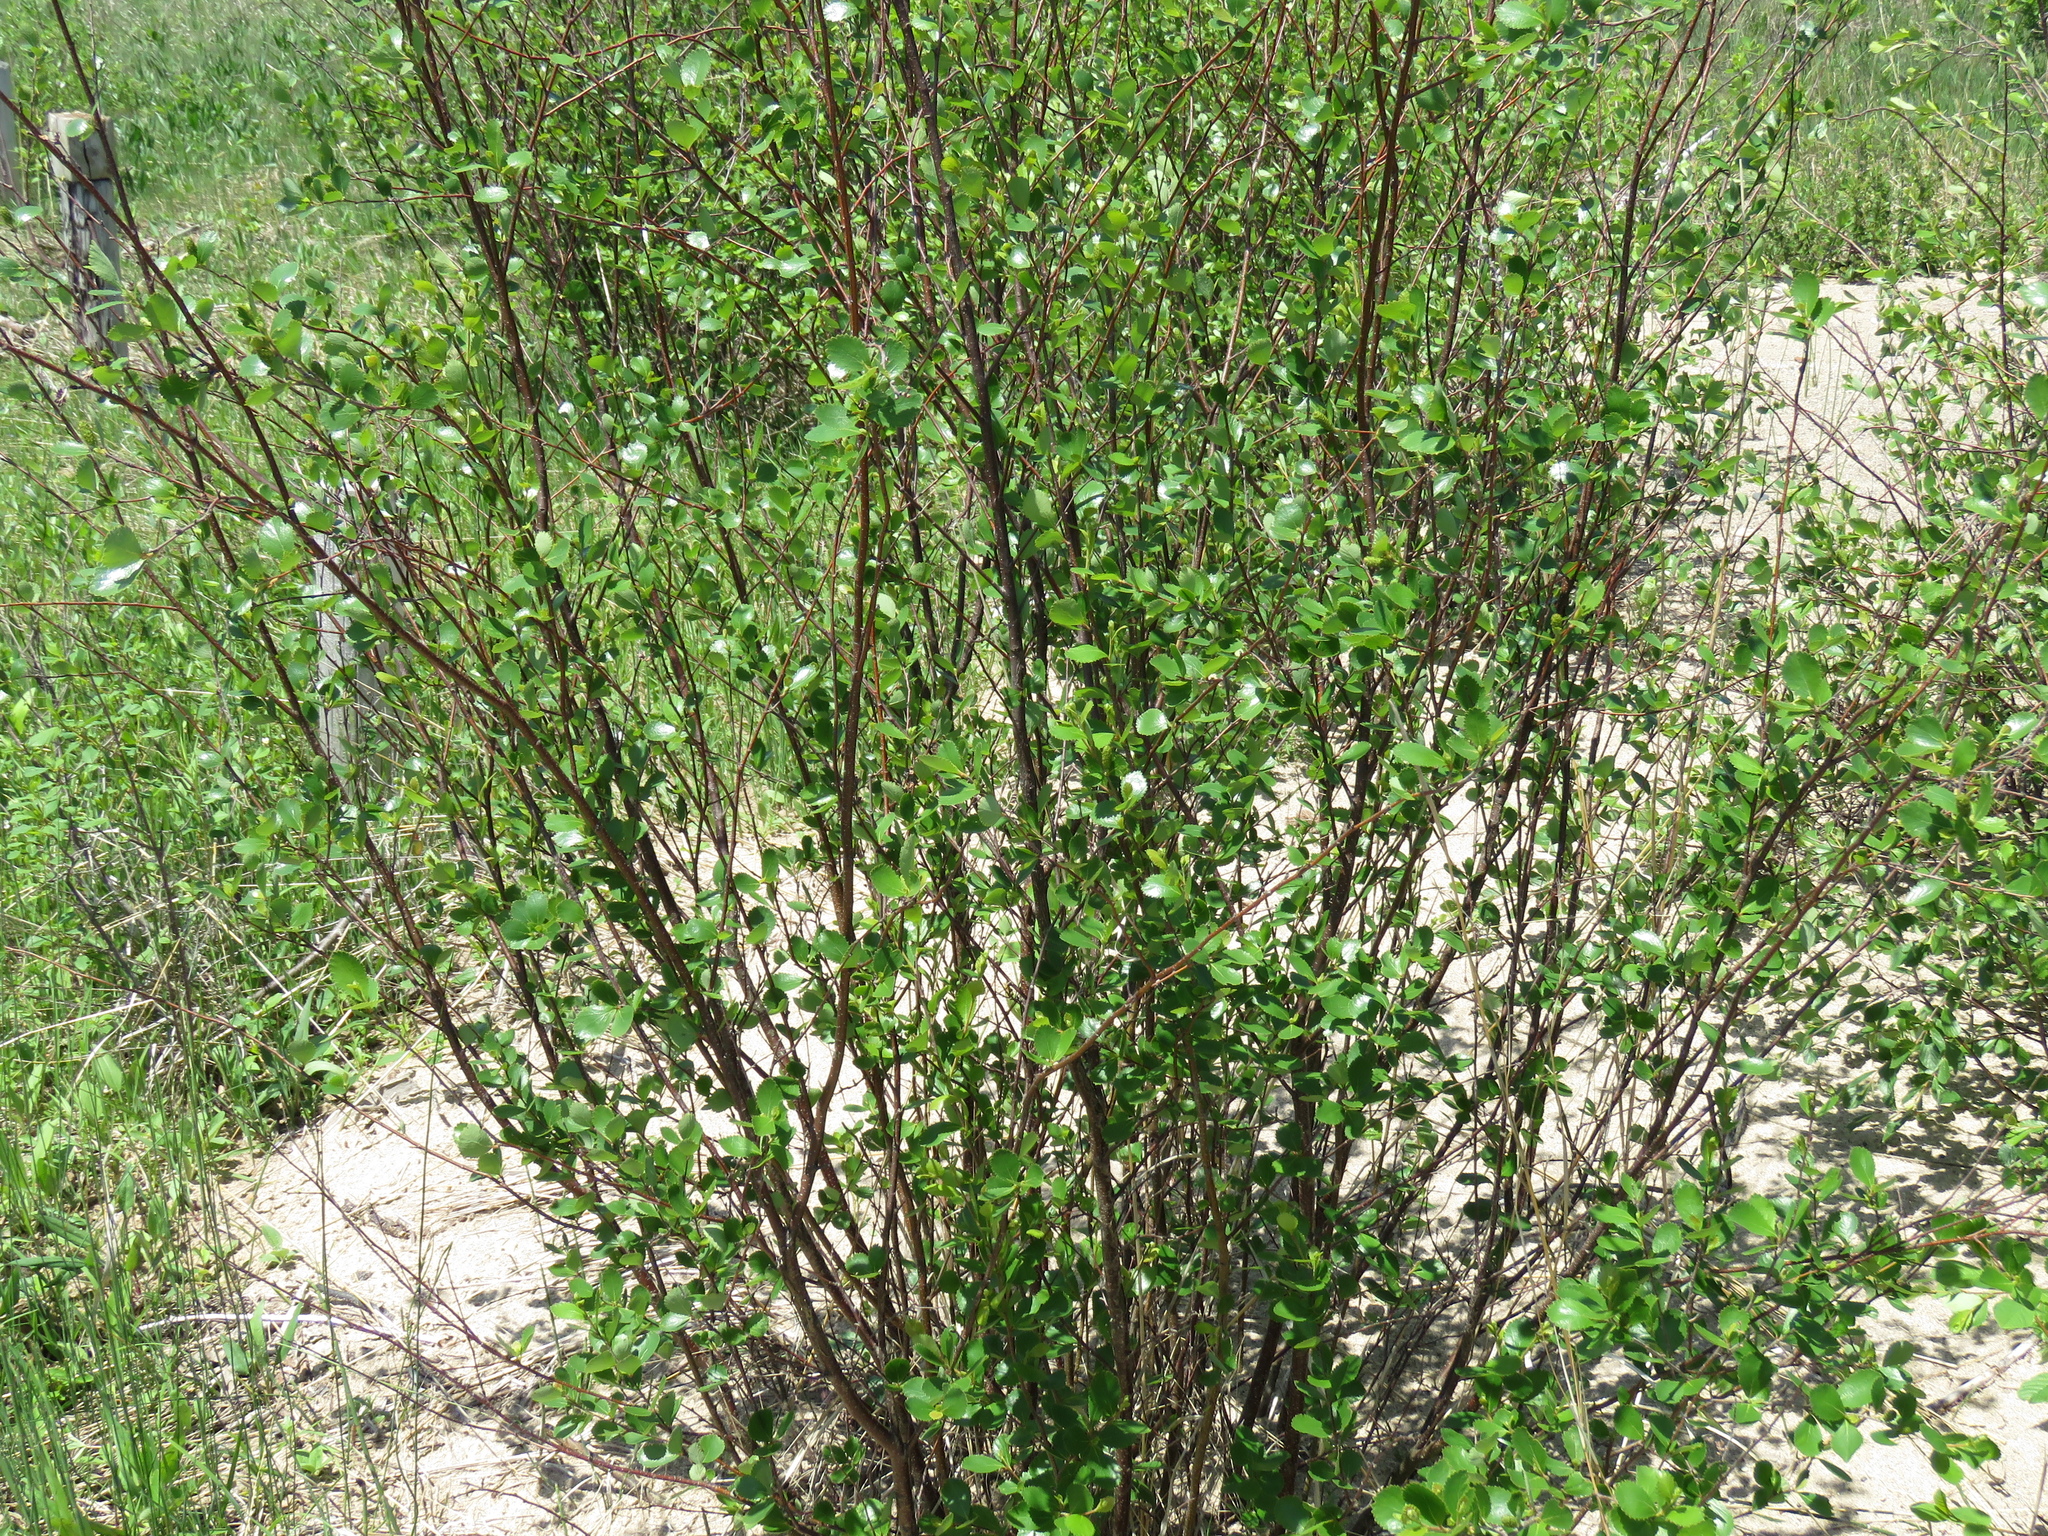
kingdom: Plantae
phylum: Tracheophyta
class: Magnoliopsida
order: Fagales
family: Betulaceae
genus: Betula
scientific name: Betula pumila
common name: Bog birch
